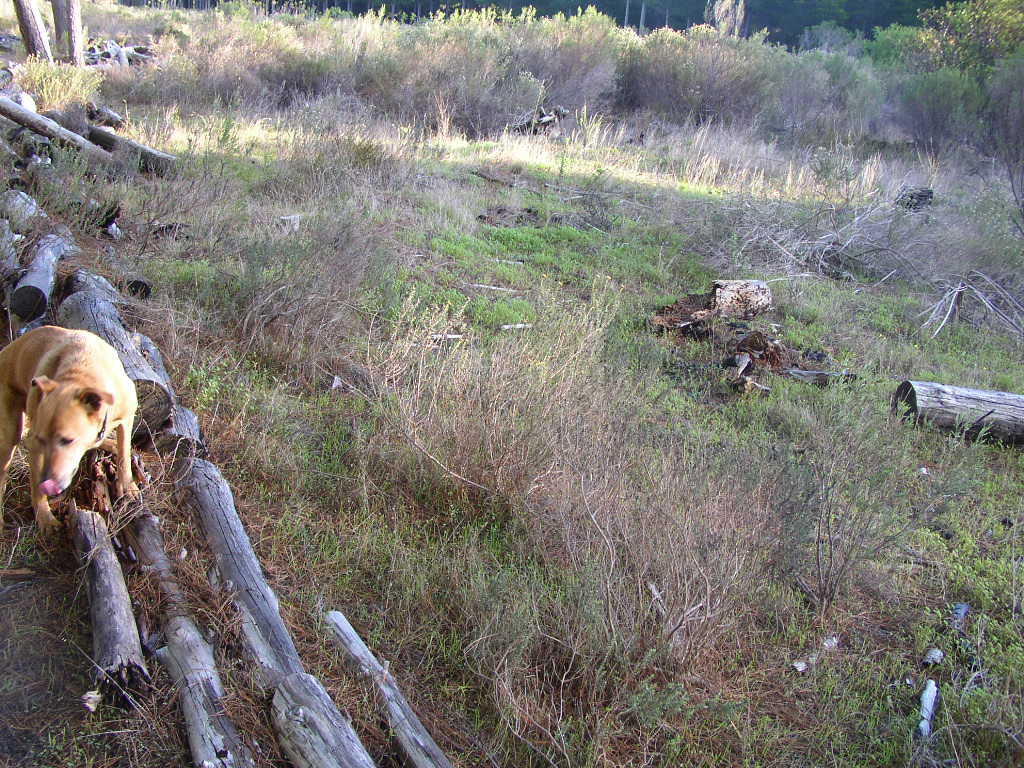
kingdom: Plantae
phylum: Tracheophyta
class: Magnoliopsida
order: Asterales
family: Asteraceae
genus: Metalasia
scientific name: Metalasia densa
